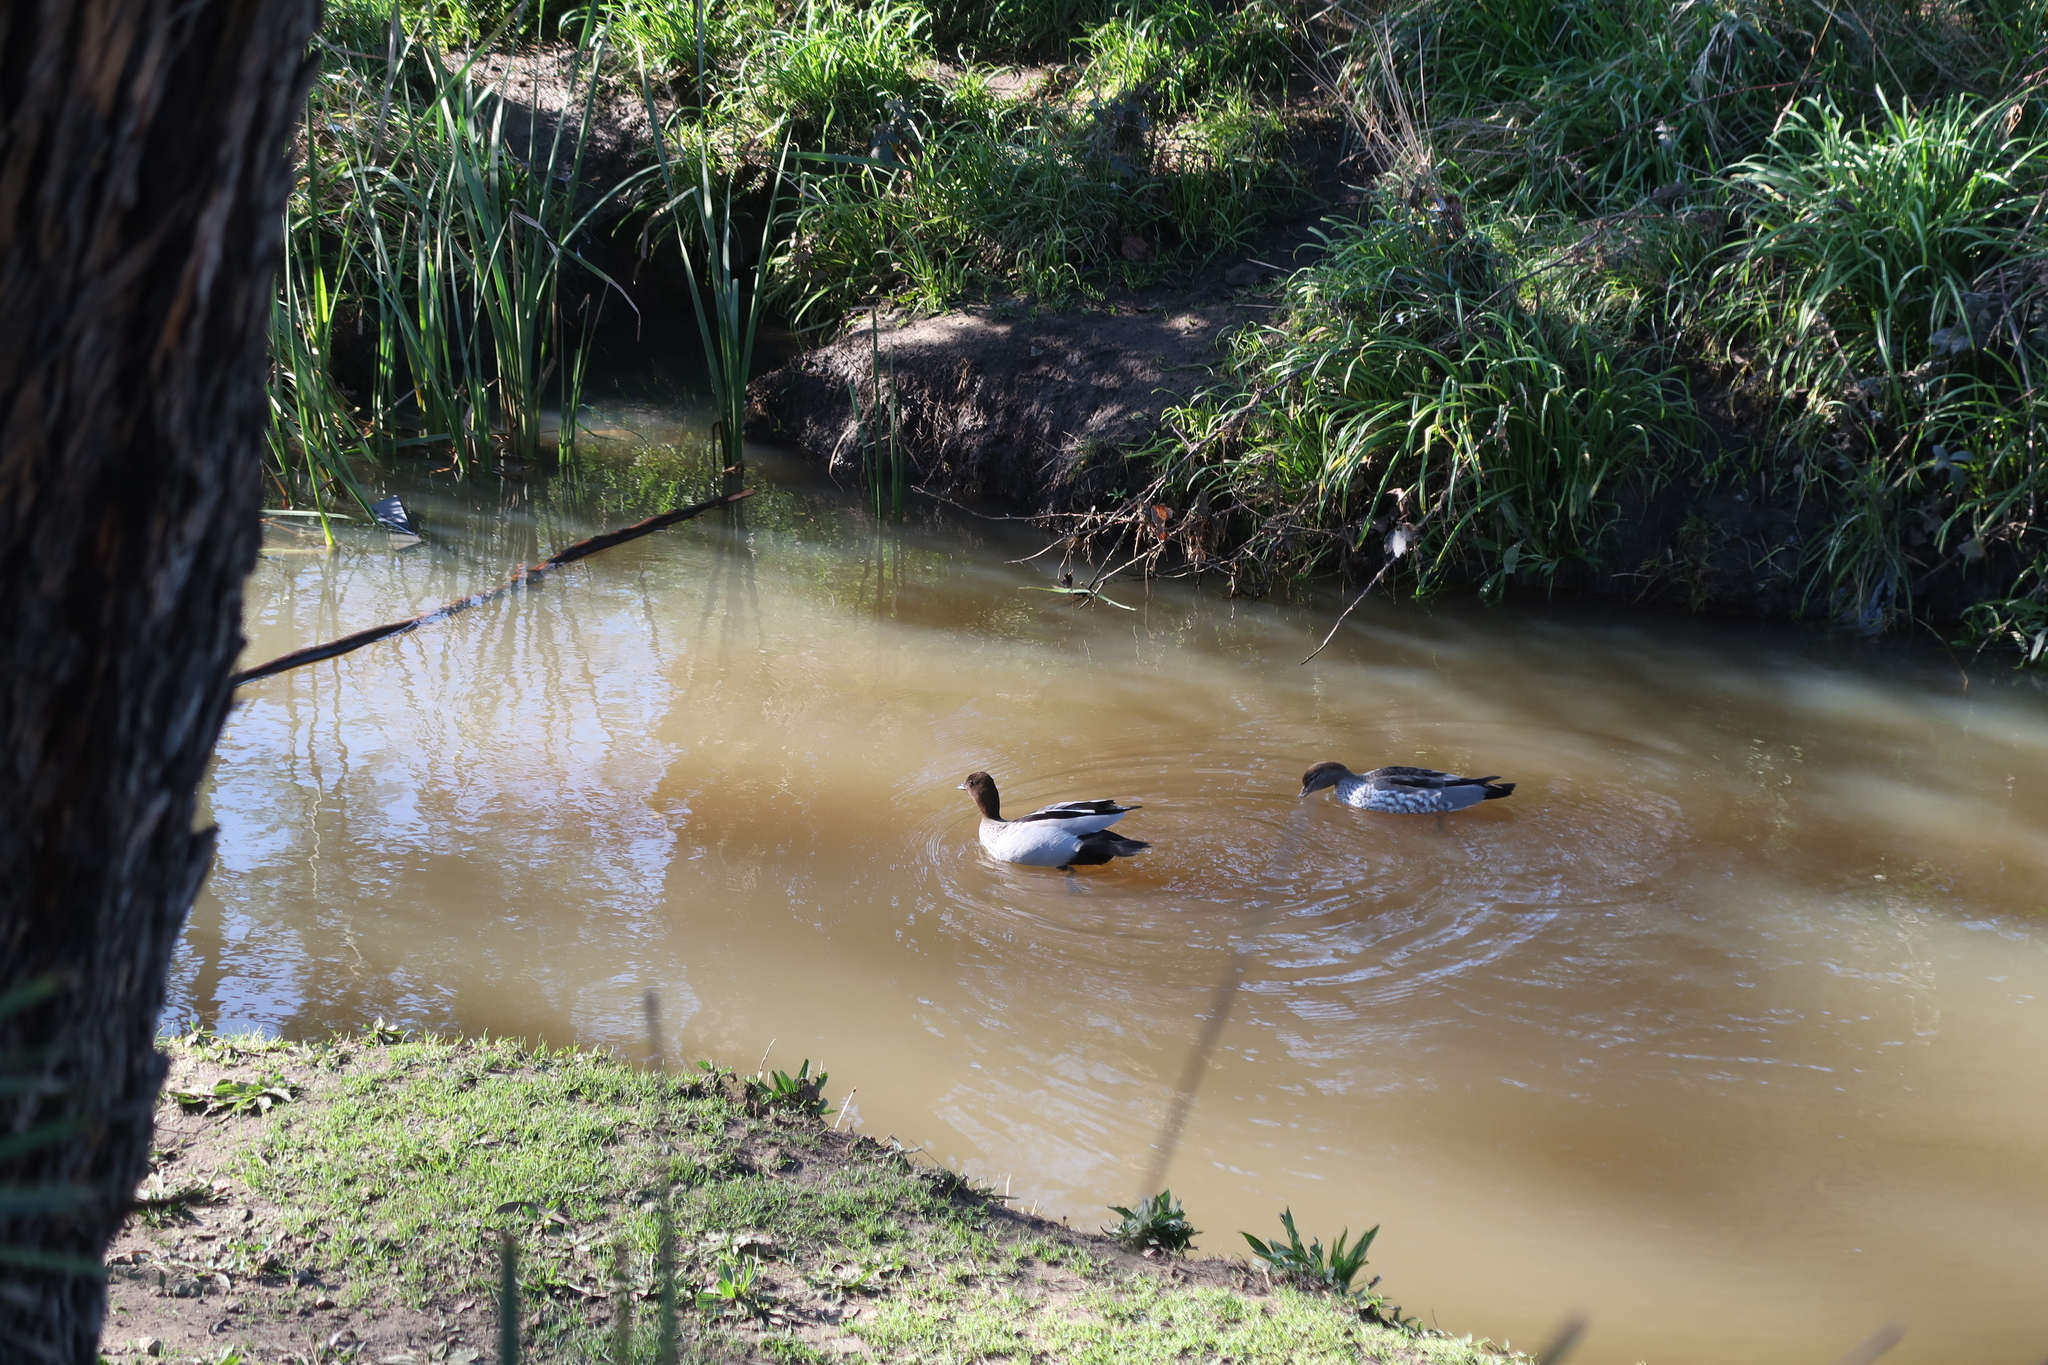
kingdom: Animalia
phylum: Chordata
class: Aves
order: Anseriformes
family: Anatidae
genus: Chenonetta
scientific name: Chenonetta jubata
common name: Maned duck
